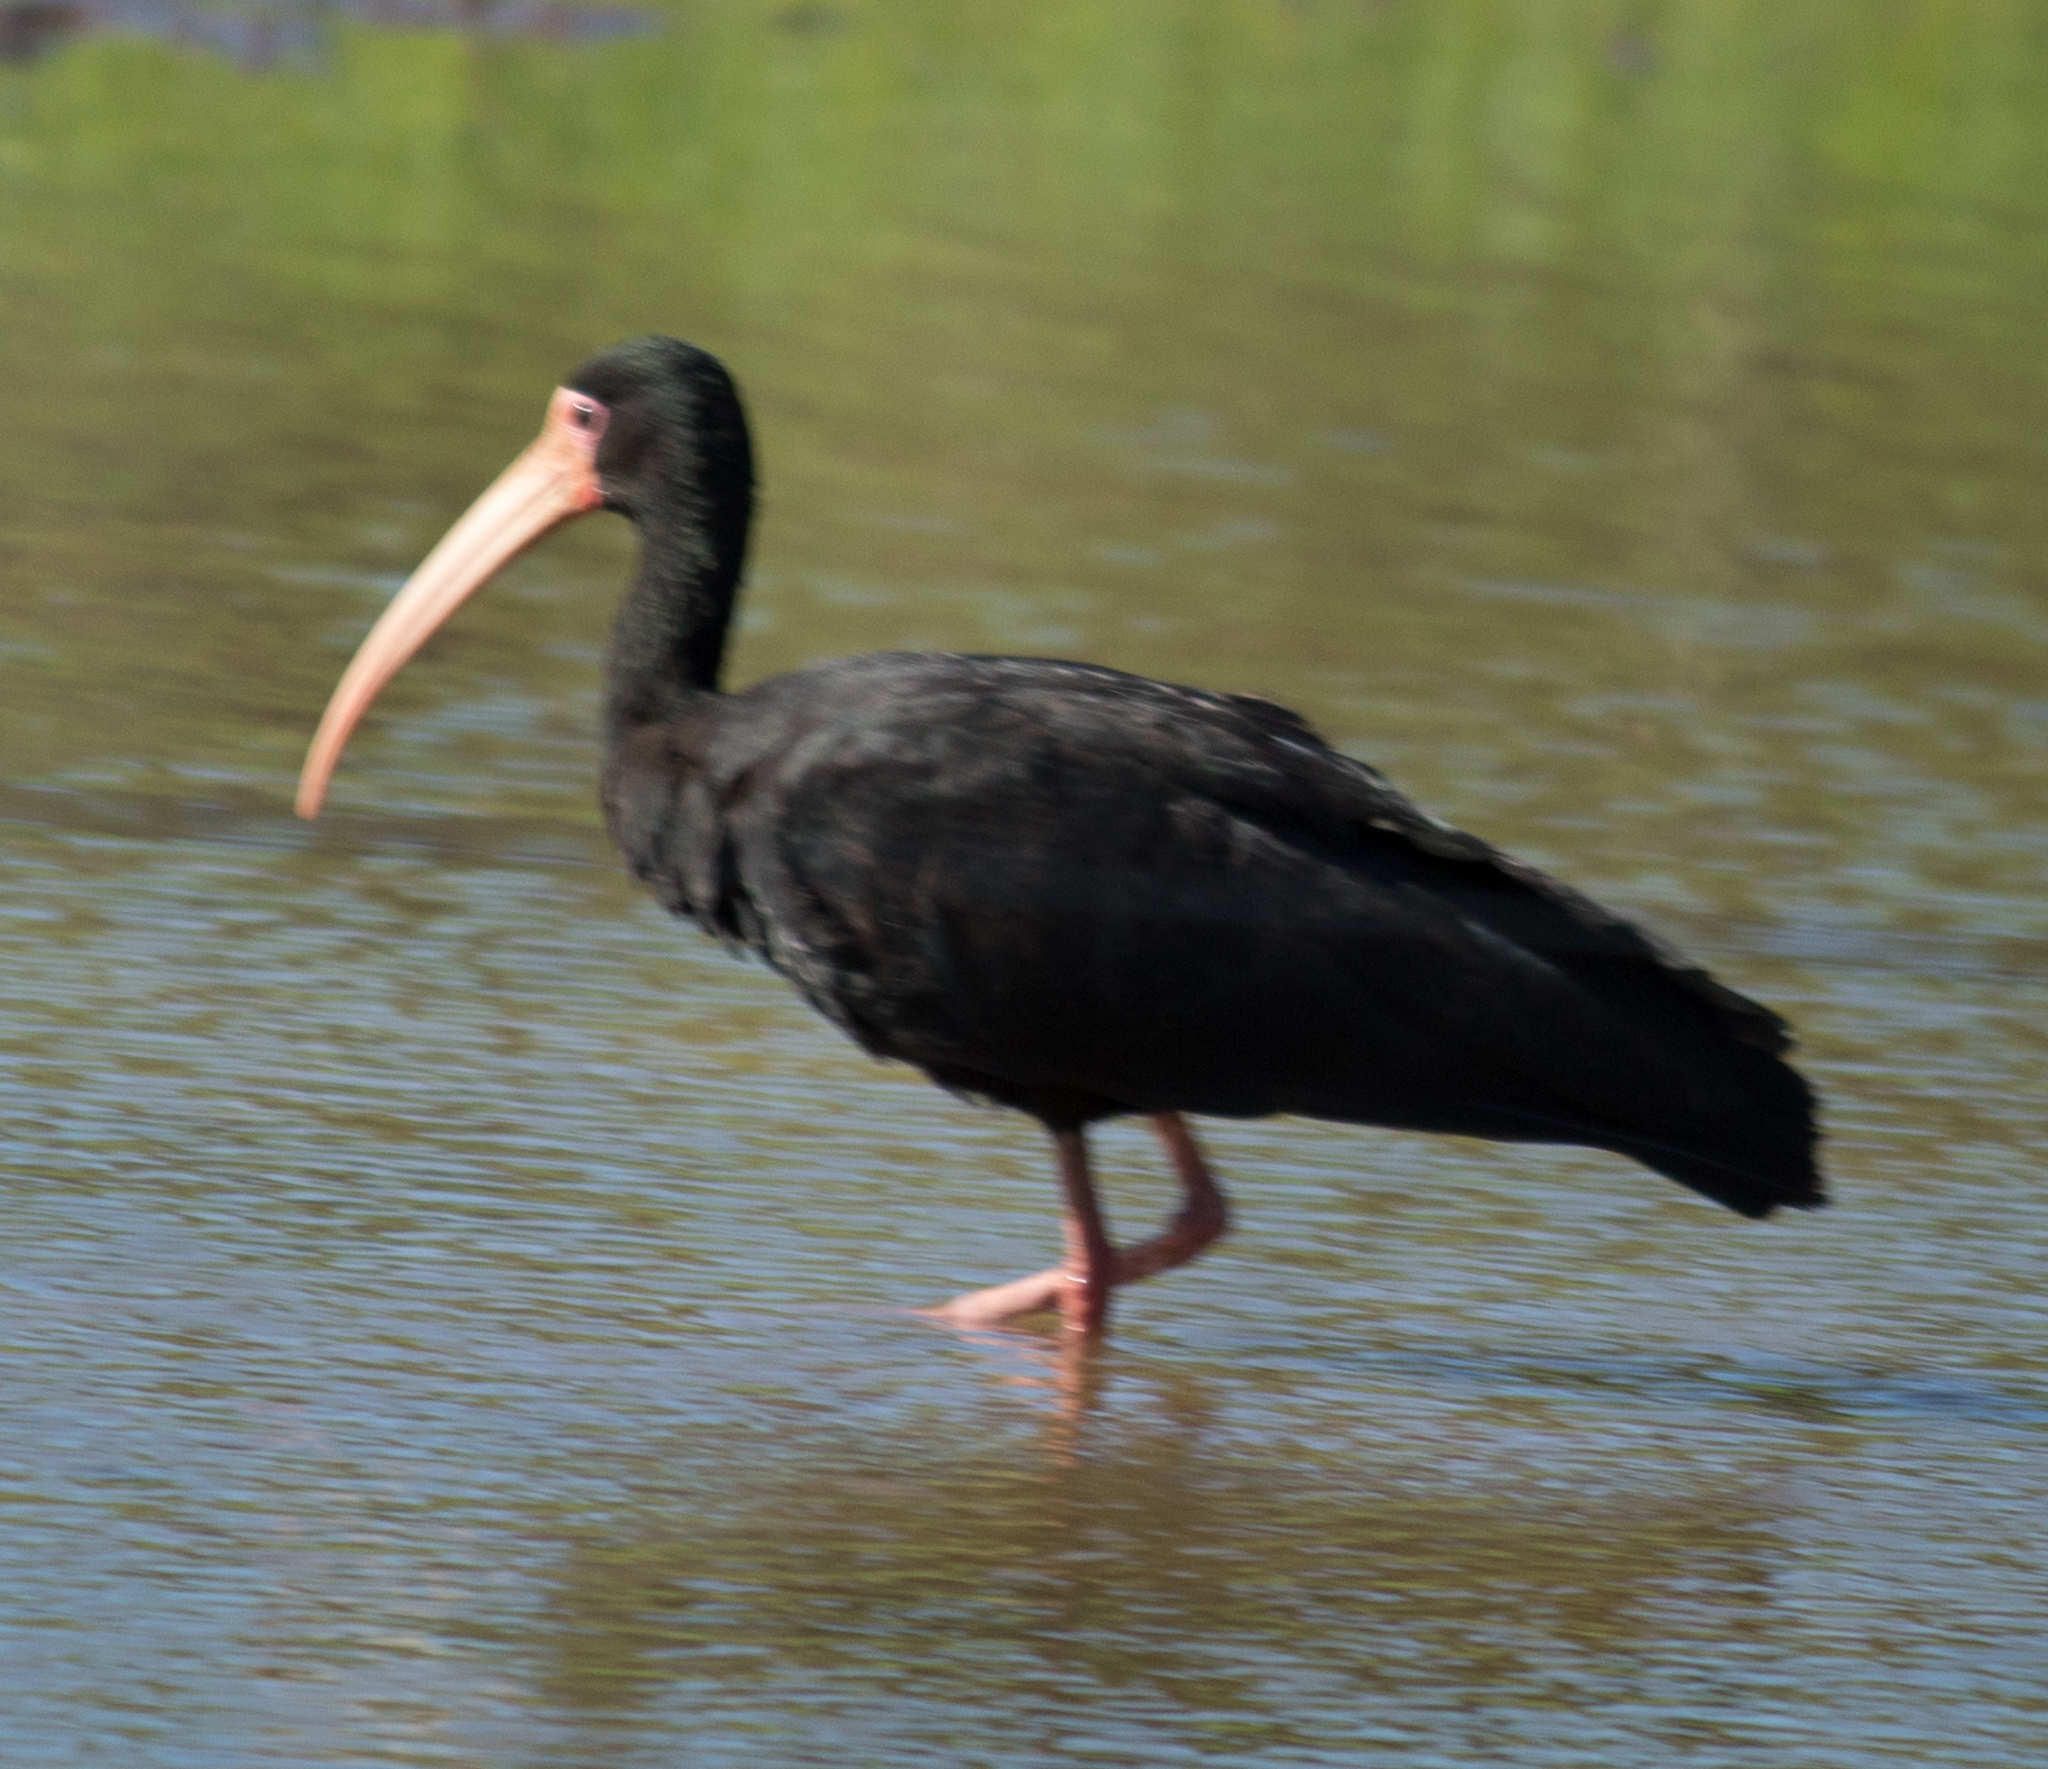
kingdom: Animalia
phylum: Chordata
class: Aves
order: Pelecaniformes
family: Threskiornithidae
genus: Phimosus
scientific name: Phimosus infuscatus
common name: Bare-faced ibis
